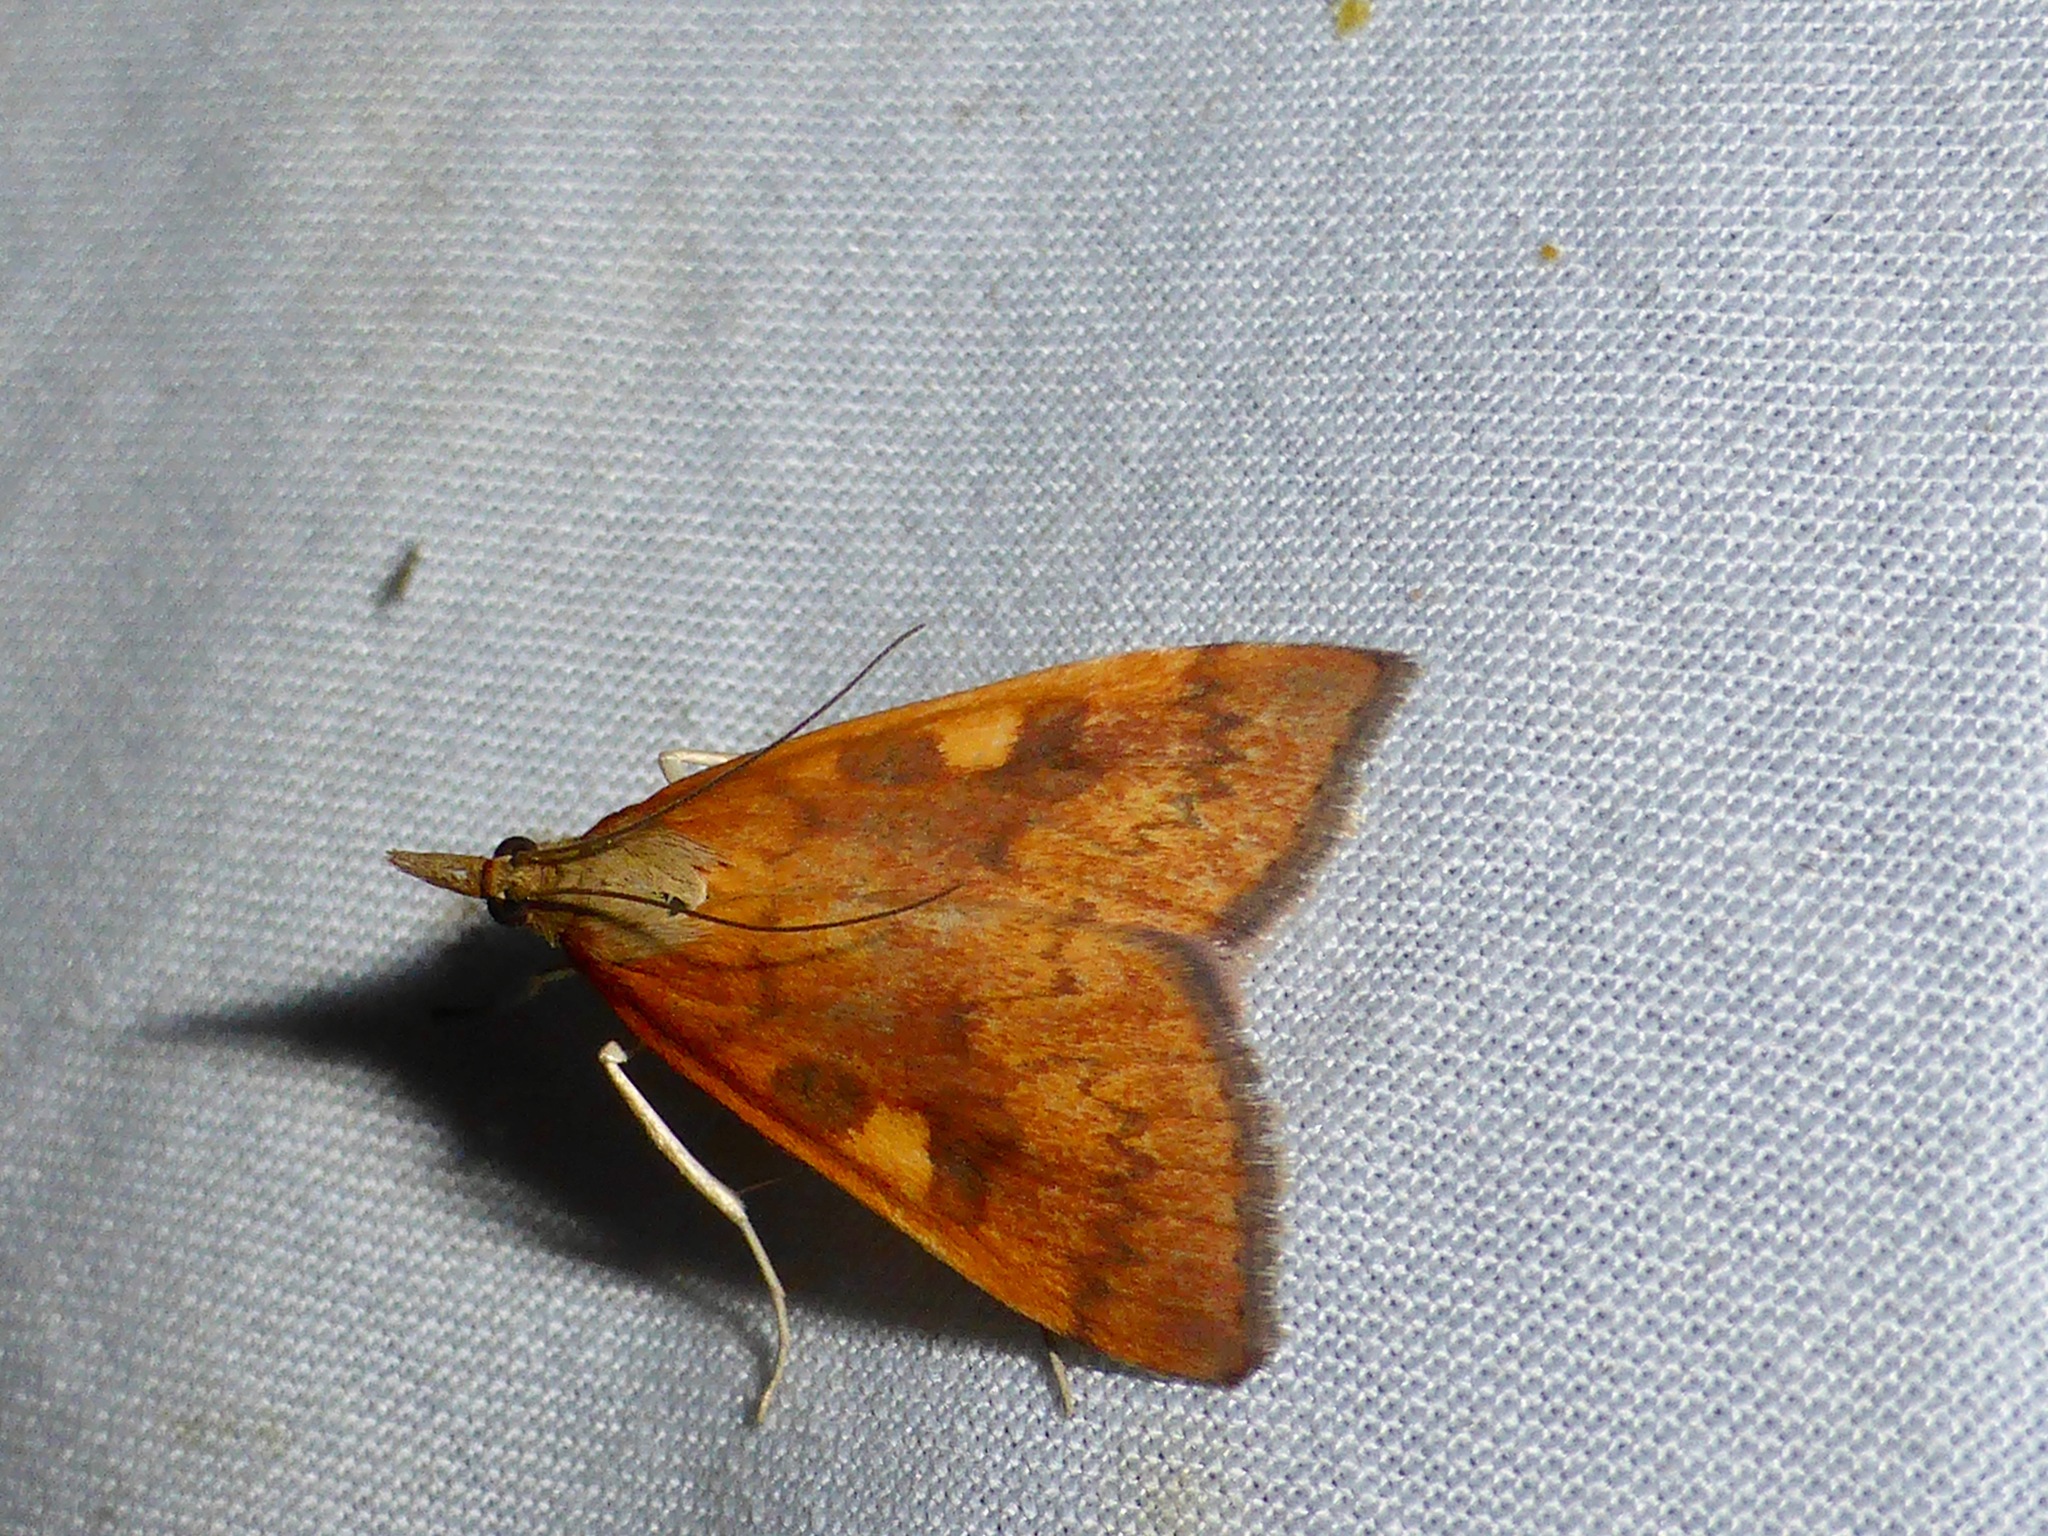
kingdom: Animalia
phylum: Arthropoda
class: Insecta
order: Lepidoptera
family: Crambidae
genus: Udea
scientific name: Udea Mnesictena flavidalis
